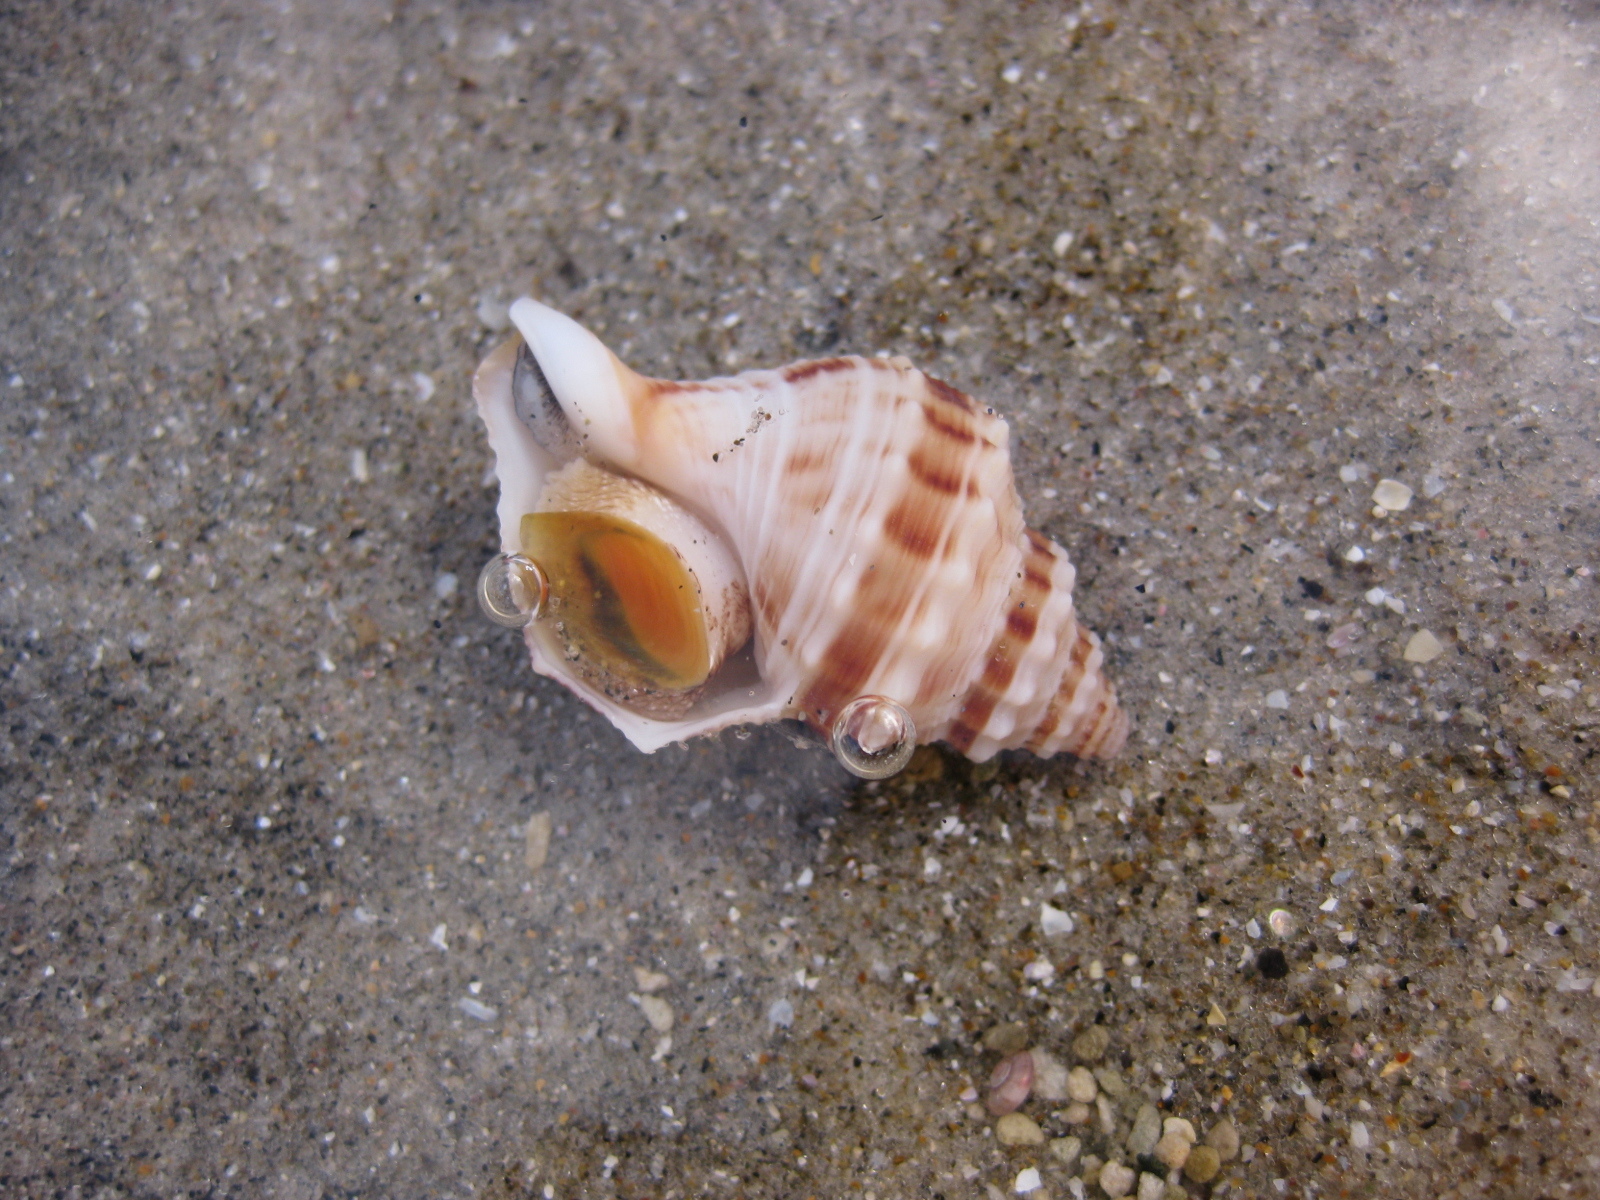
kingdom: Animalia
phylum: Mollusca
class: Gastropoda
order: Neogastropoda
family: Prosiphonidae
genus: Austrofusus
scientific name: Austrofusus glans
